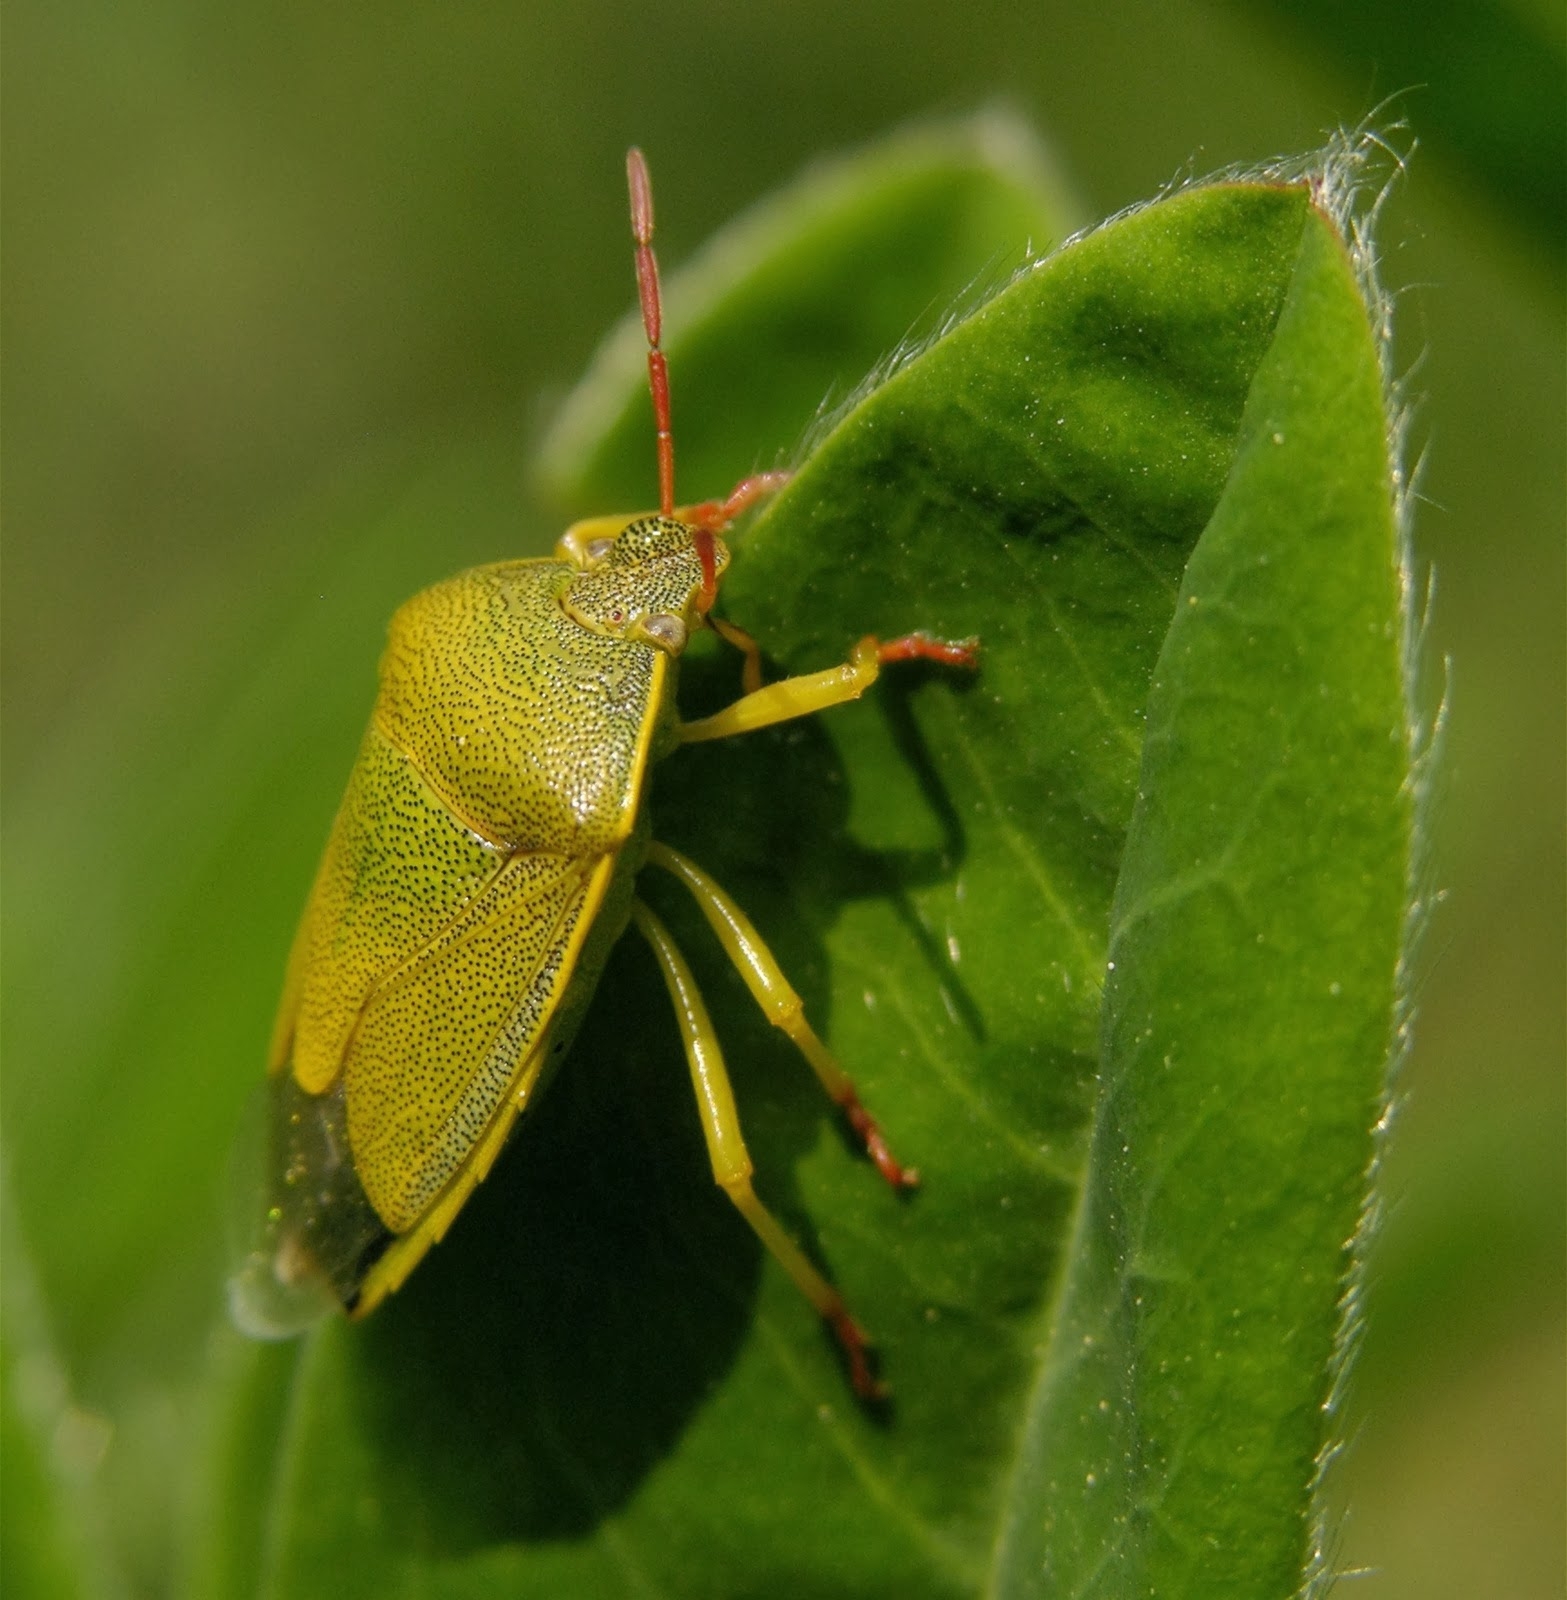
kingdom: Animalia
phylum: Arthropoda
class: Insecta
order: Hemiptera
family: Pentatomidae
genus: Piezodorus
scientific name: Piezodorus lituratus
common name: Stink bug
